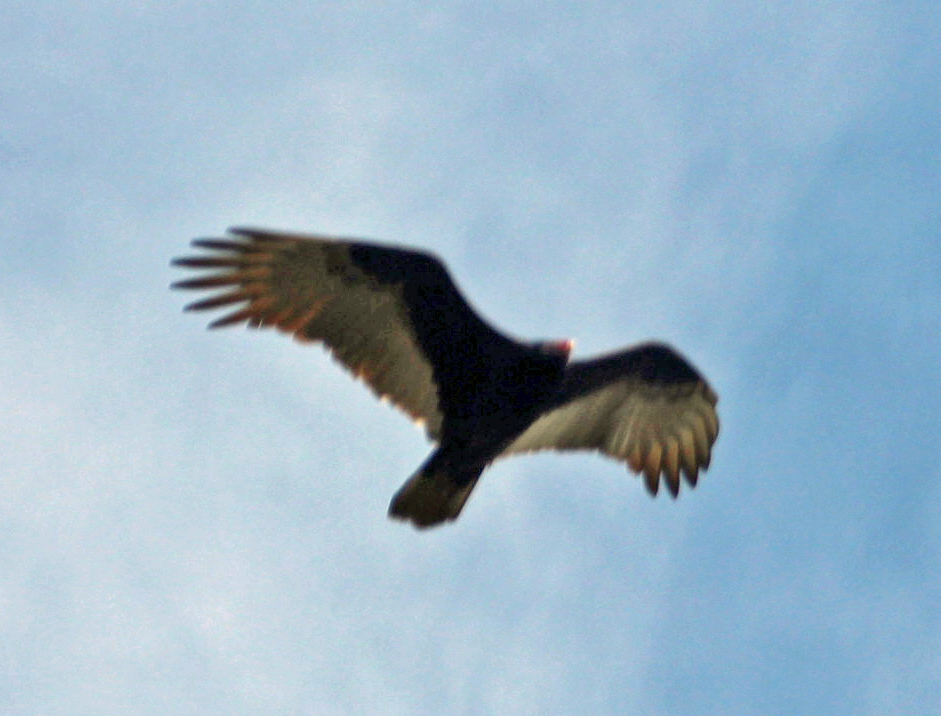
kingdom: Animalia
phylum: Chordata
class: Aves
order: Accipitriformes
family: Cathartidae
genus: Cathartes
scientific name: Cathartes aura
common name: Turkey vulture
